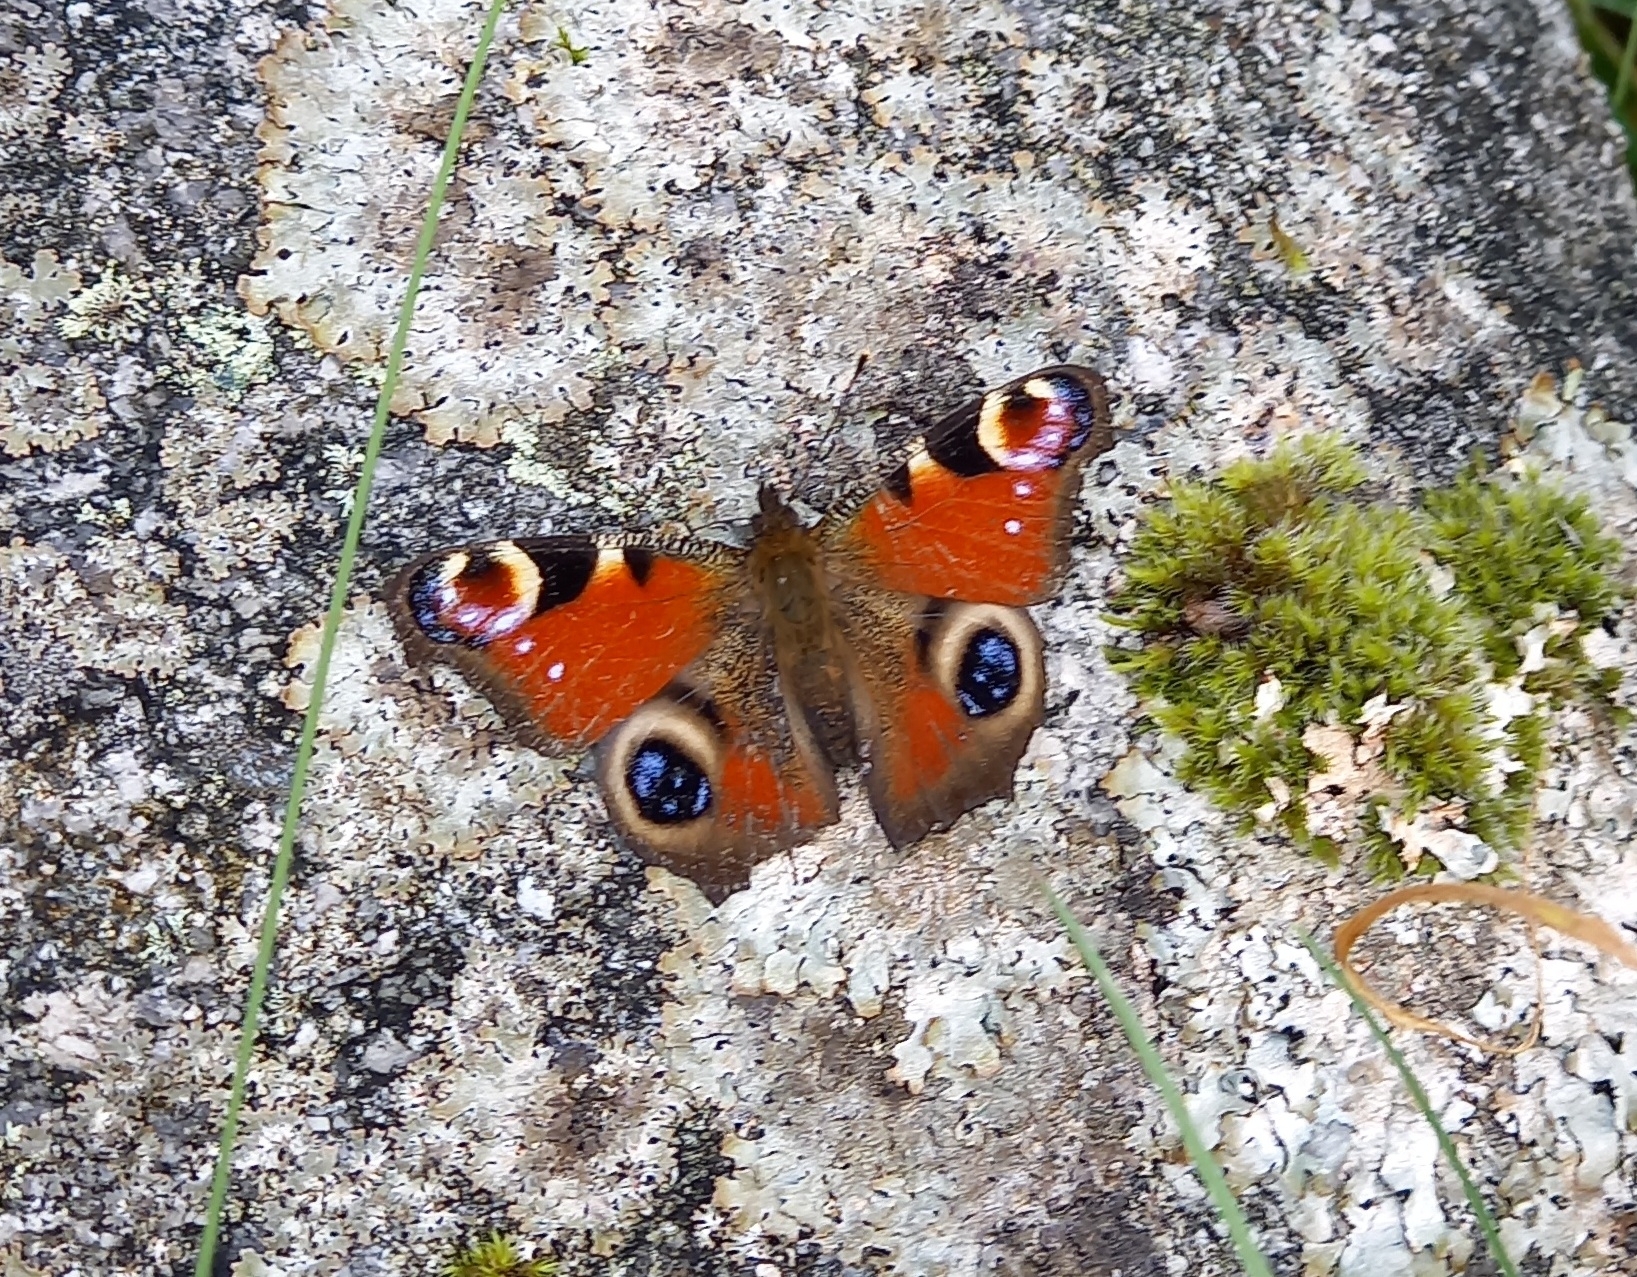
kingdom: Animalia
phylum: Arthropoda
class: Insecta
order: Lepidoptera
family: Nymphalidae
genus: Aglais
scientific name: Aglais io
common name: Peacock
